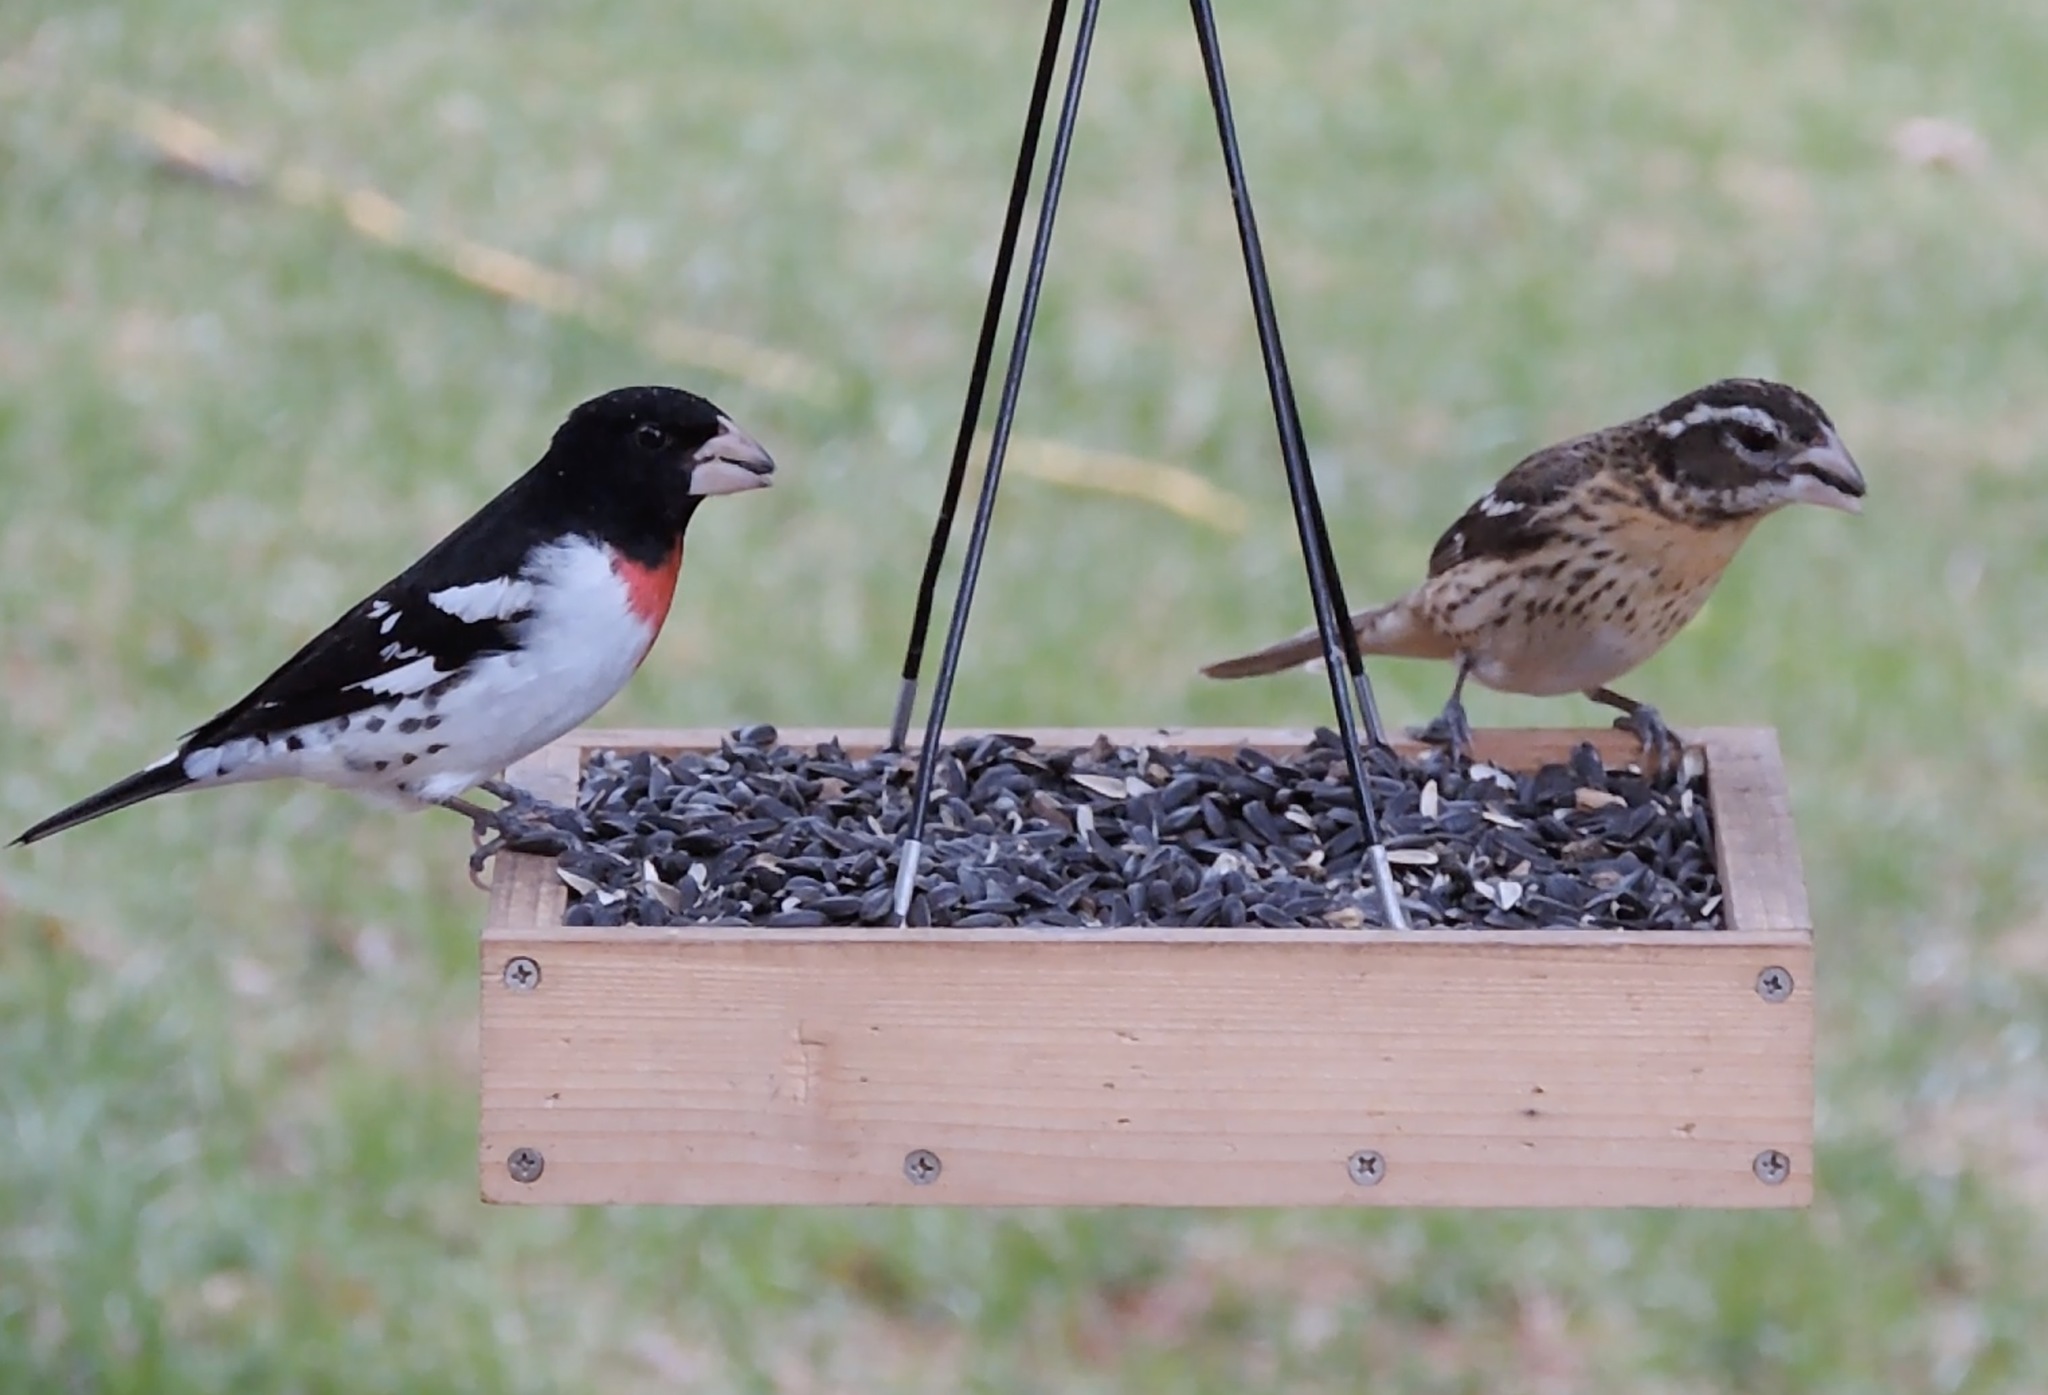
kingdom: Animalia
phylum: Chordata
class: Aves
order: Passeriformes
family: Cardinalidae
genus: Pheucticus
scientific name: Pheucticus ludovicianus
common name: Rose-breasted grosbeak
